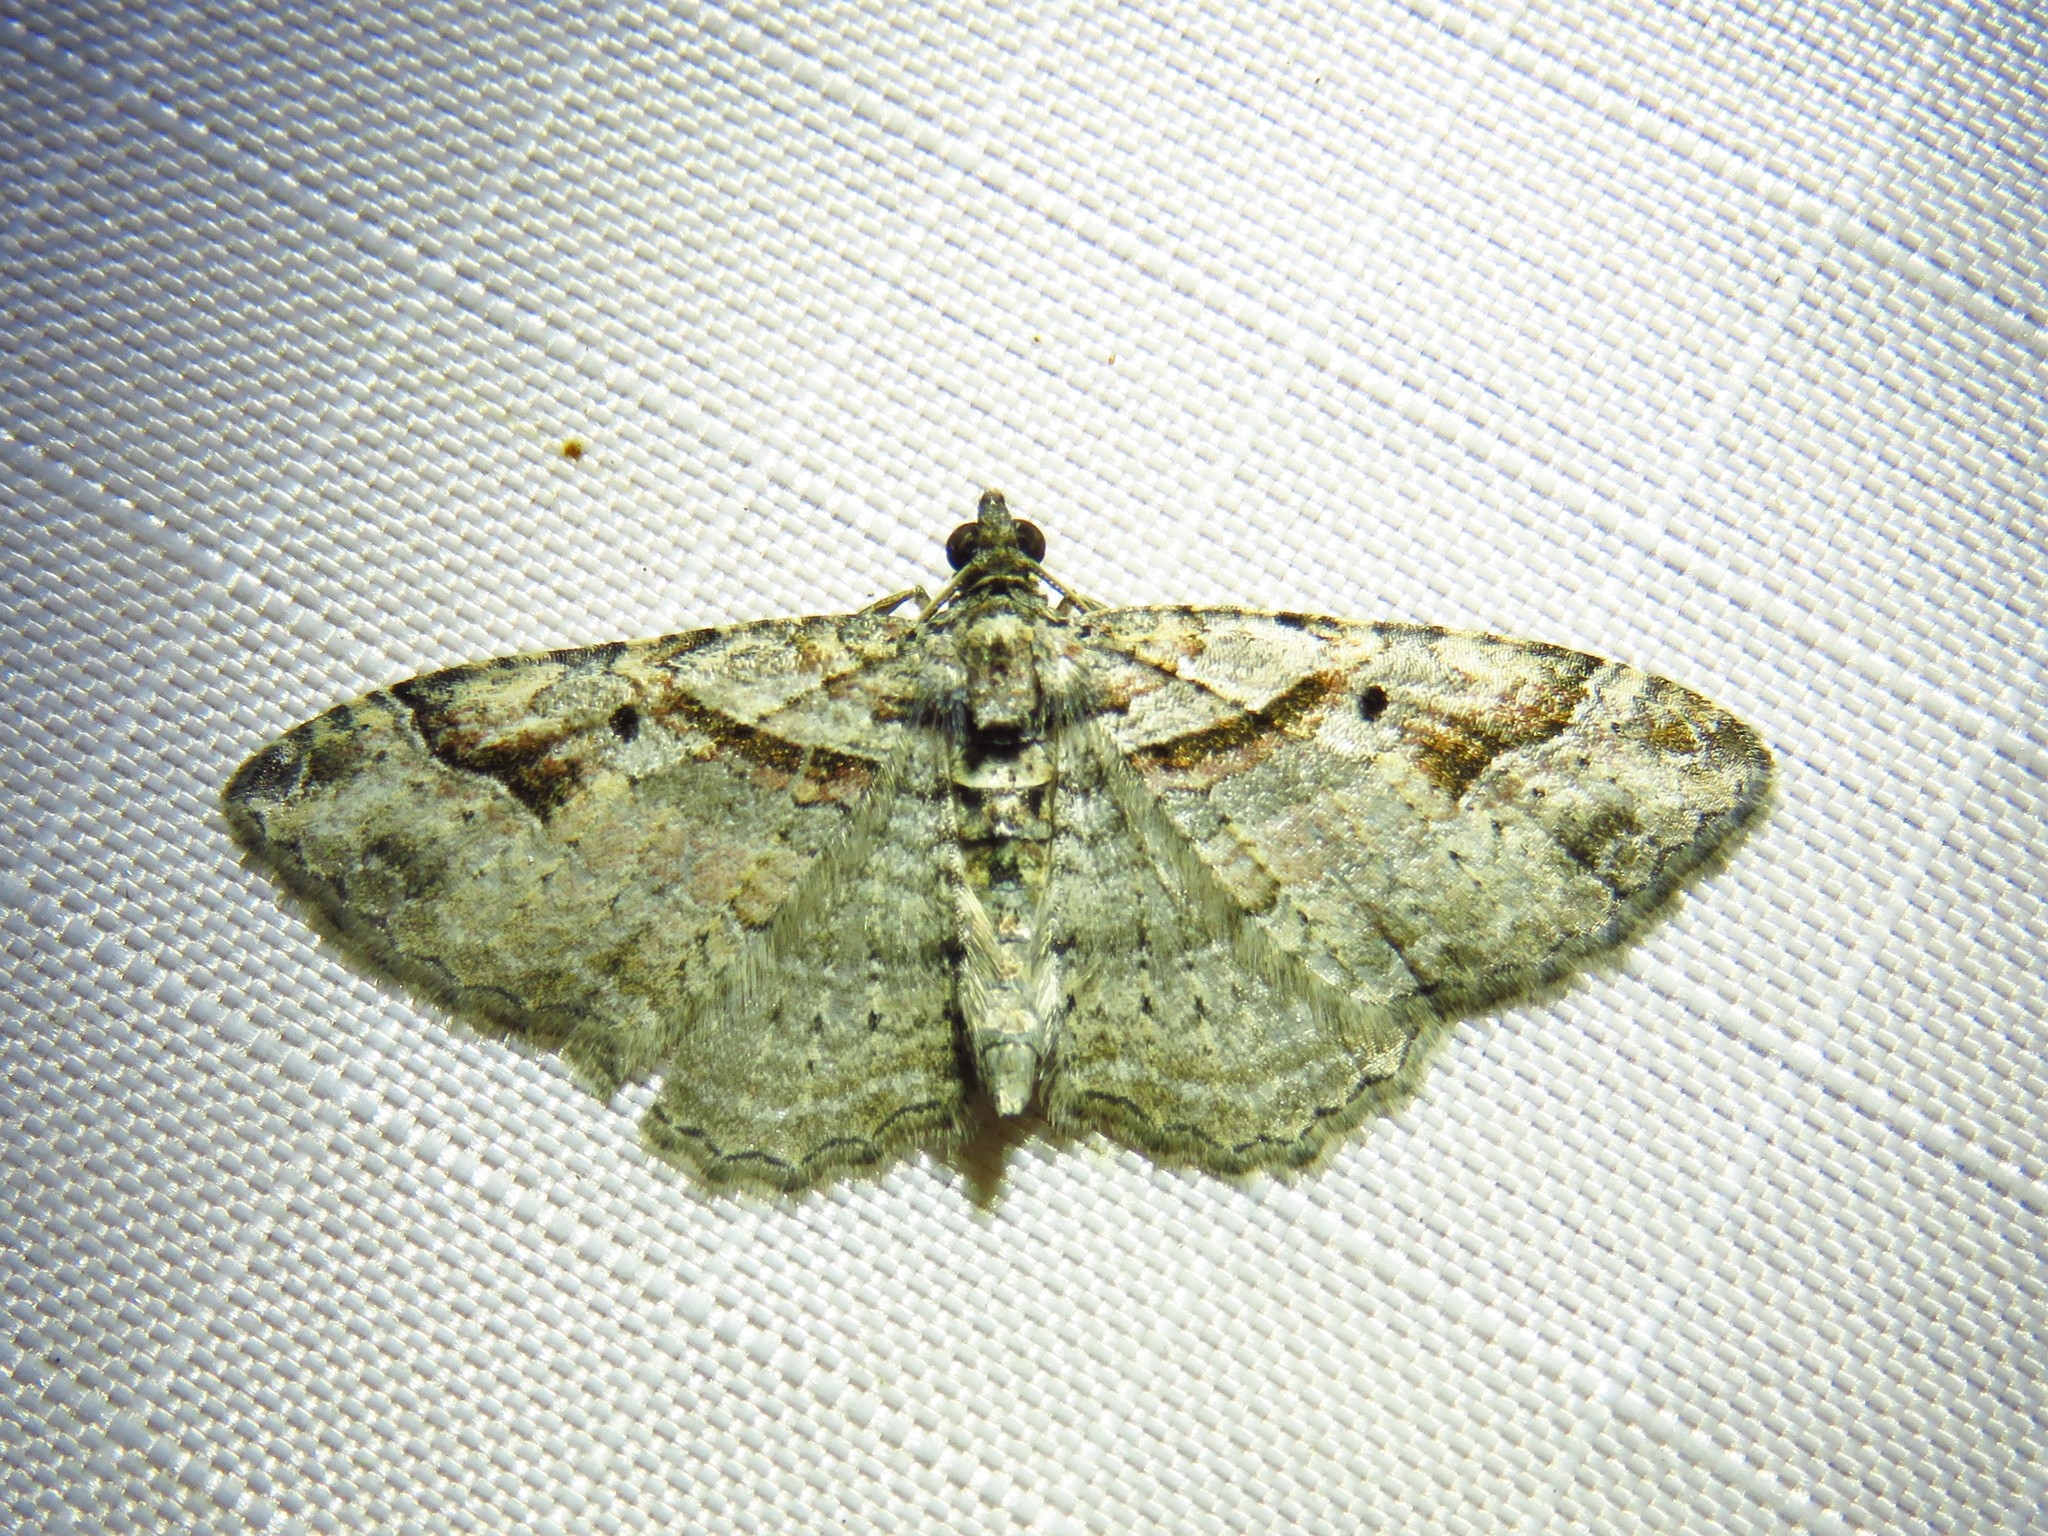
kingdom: Animalia
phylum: Arthropoda
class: Insecta
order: Lepidoptera
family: Geometridae
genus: Costaconvexa
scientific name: Costaconvexa centrostrigaria
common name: Bent-line carpet
